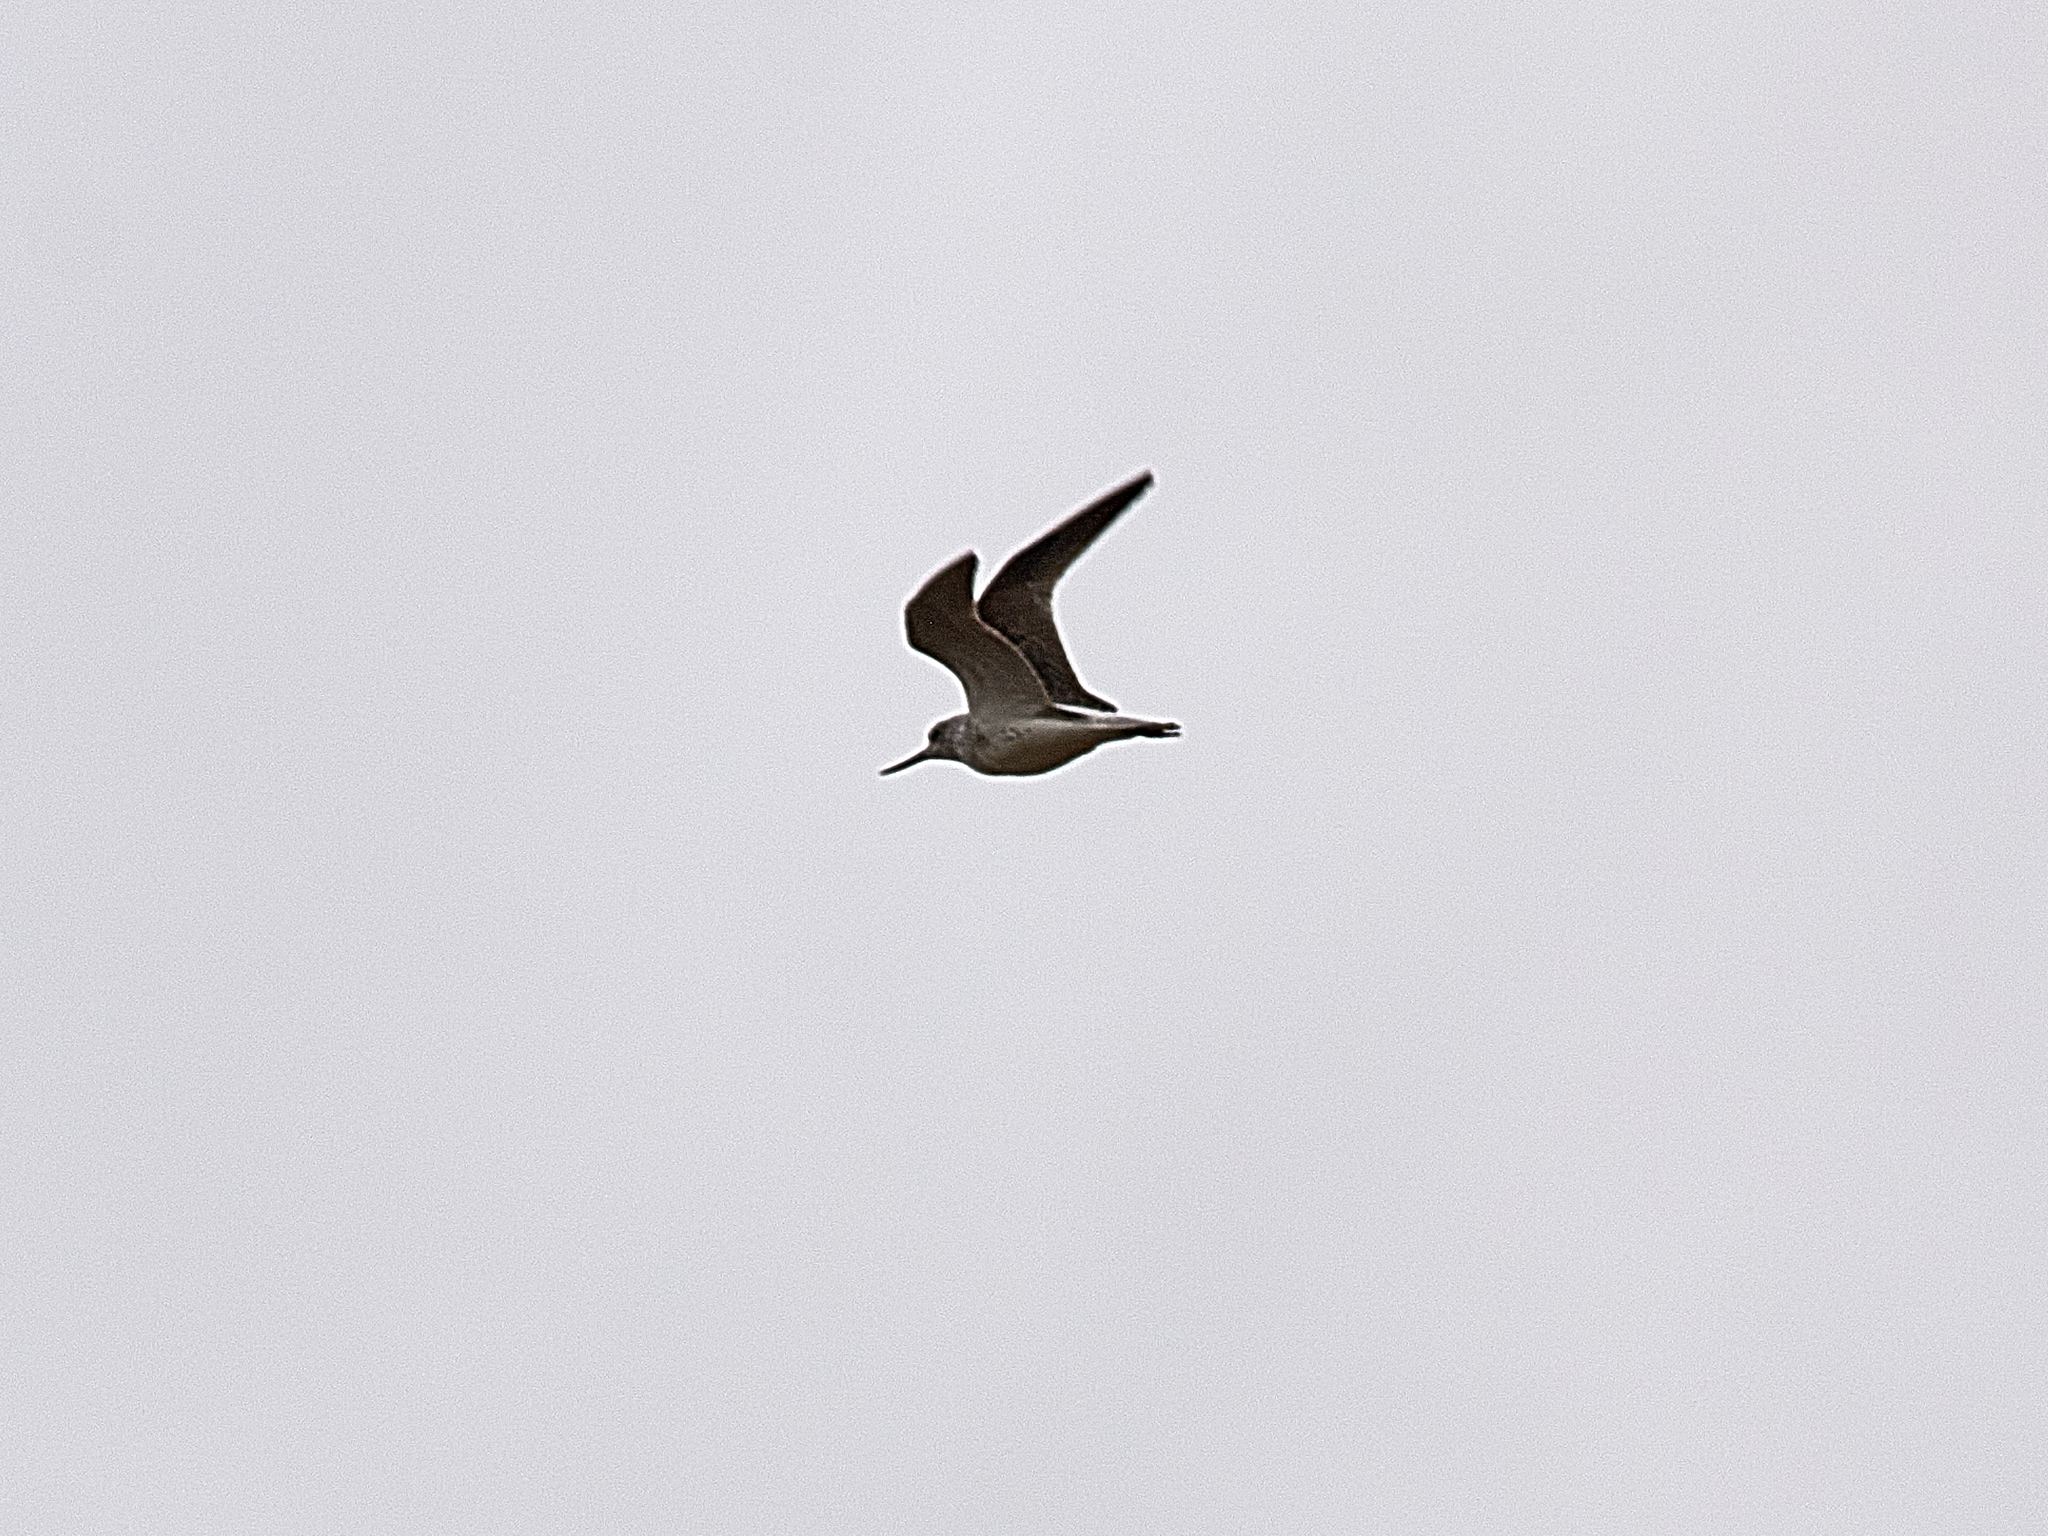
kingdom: Animalia
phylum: Chordata
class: Aves
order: Charadriiformes
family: Scolopacidae
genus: Tringa
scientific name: Tringa nebularia
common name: Common greenshank
